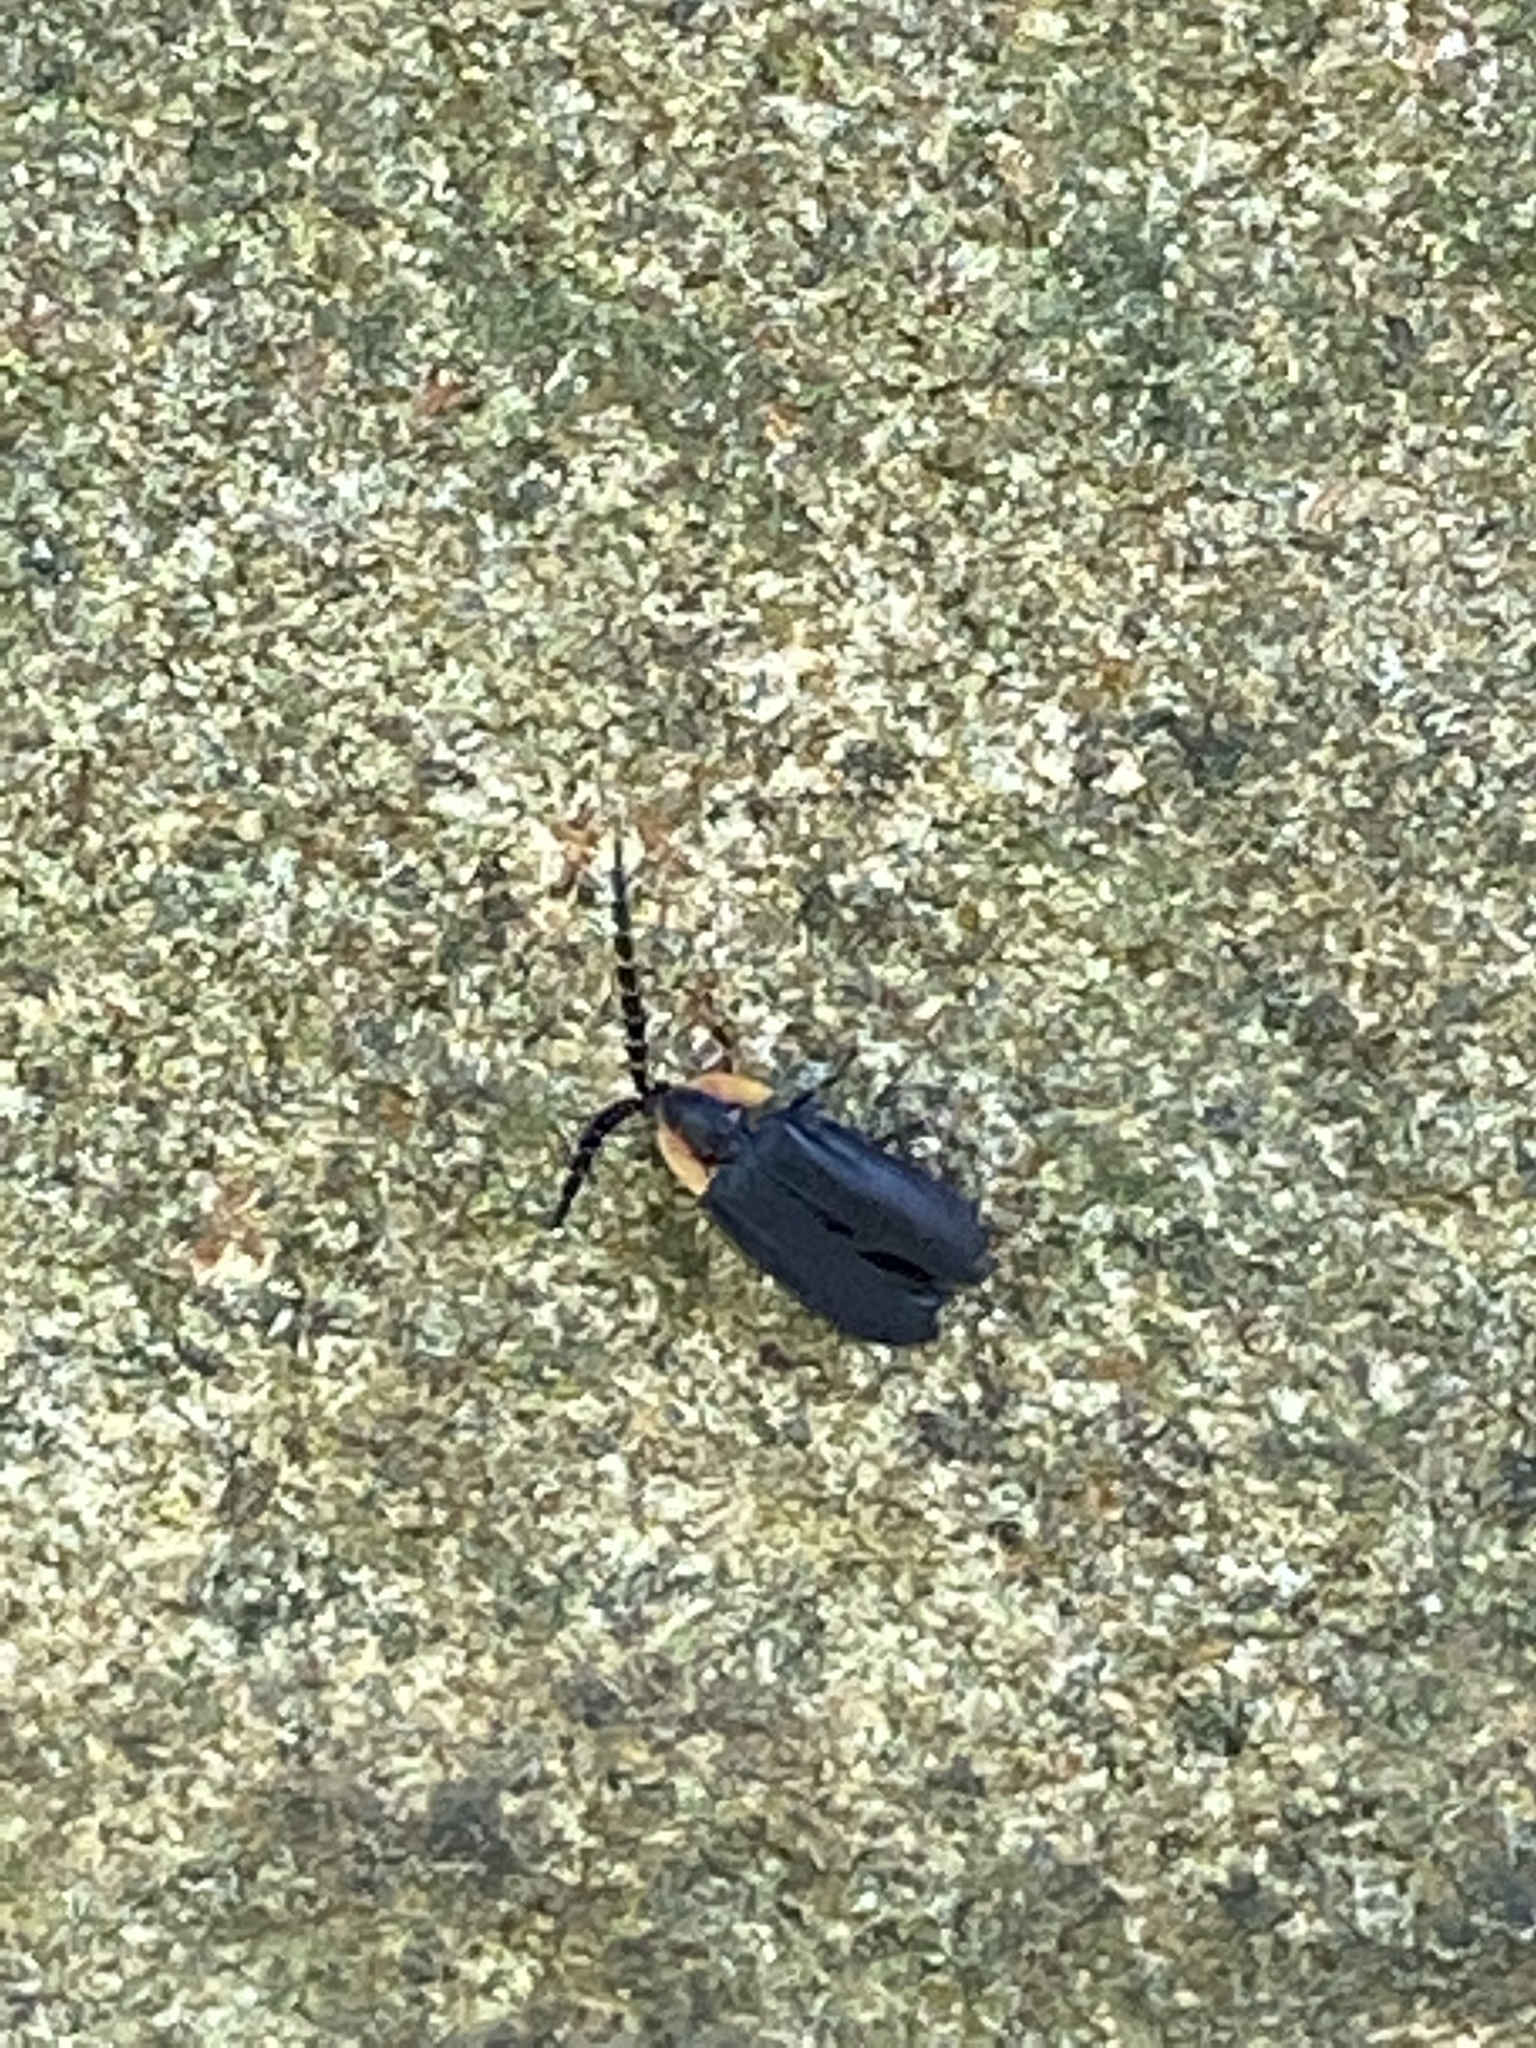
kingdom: Animalia
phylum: Arthropoda
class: Insecta
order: Coleoptera
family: Lampyridae
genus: Lucidota
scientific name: Lucidota atra
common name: Black firefly
